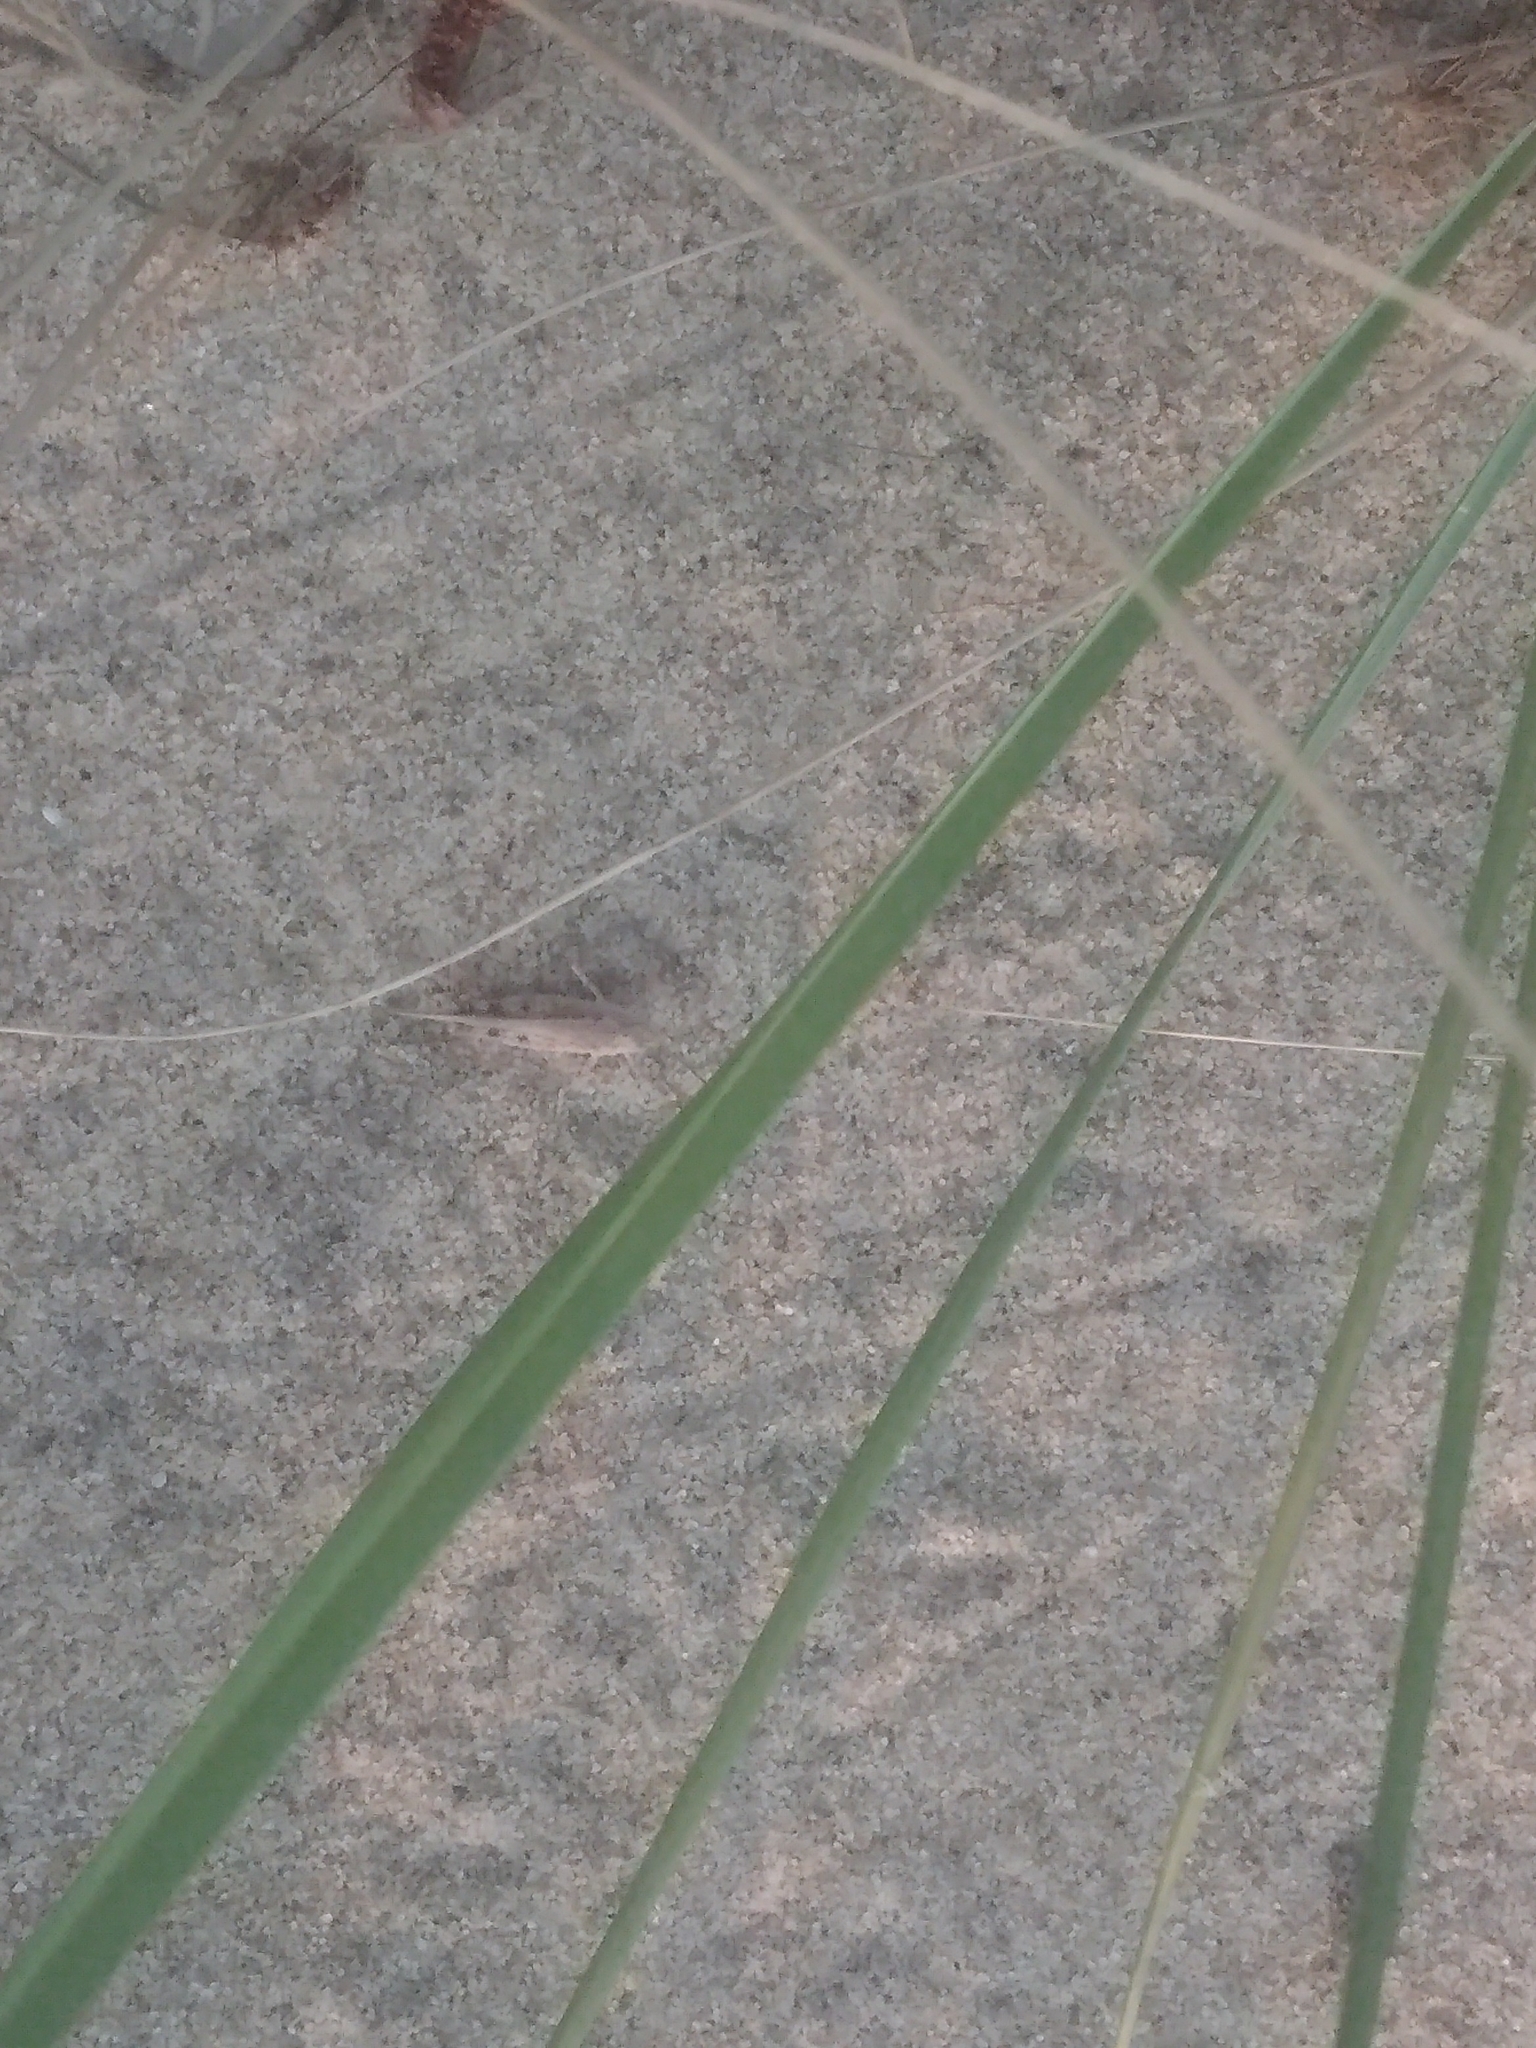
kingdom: Animalia
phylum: Arthropoda
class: Insecta
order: Orthoptera
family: Acrididae
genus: Trimerotropis
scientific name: Trimerotropis maritima
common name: Seaside locust
